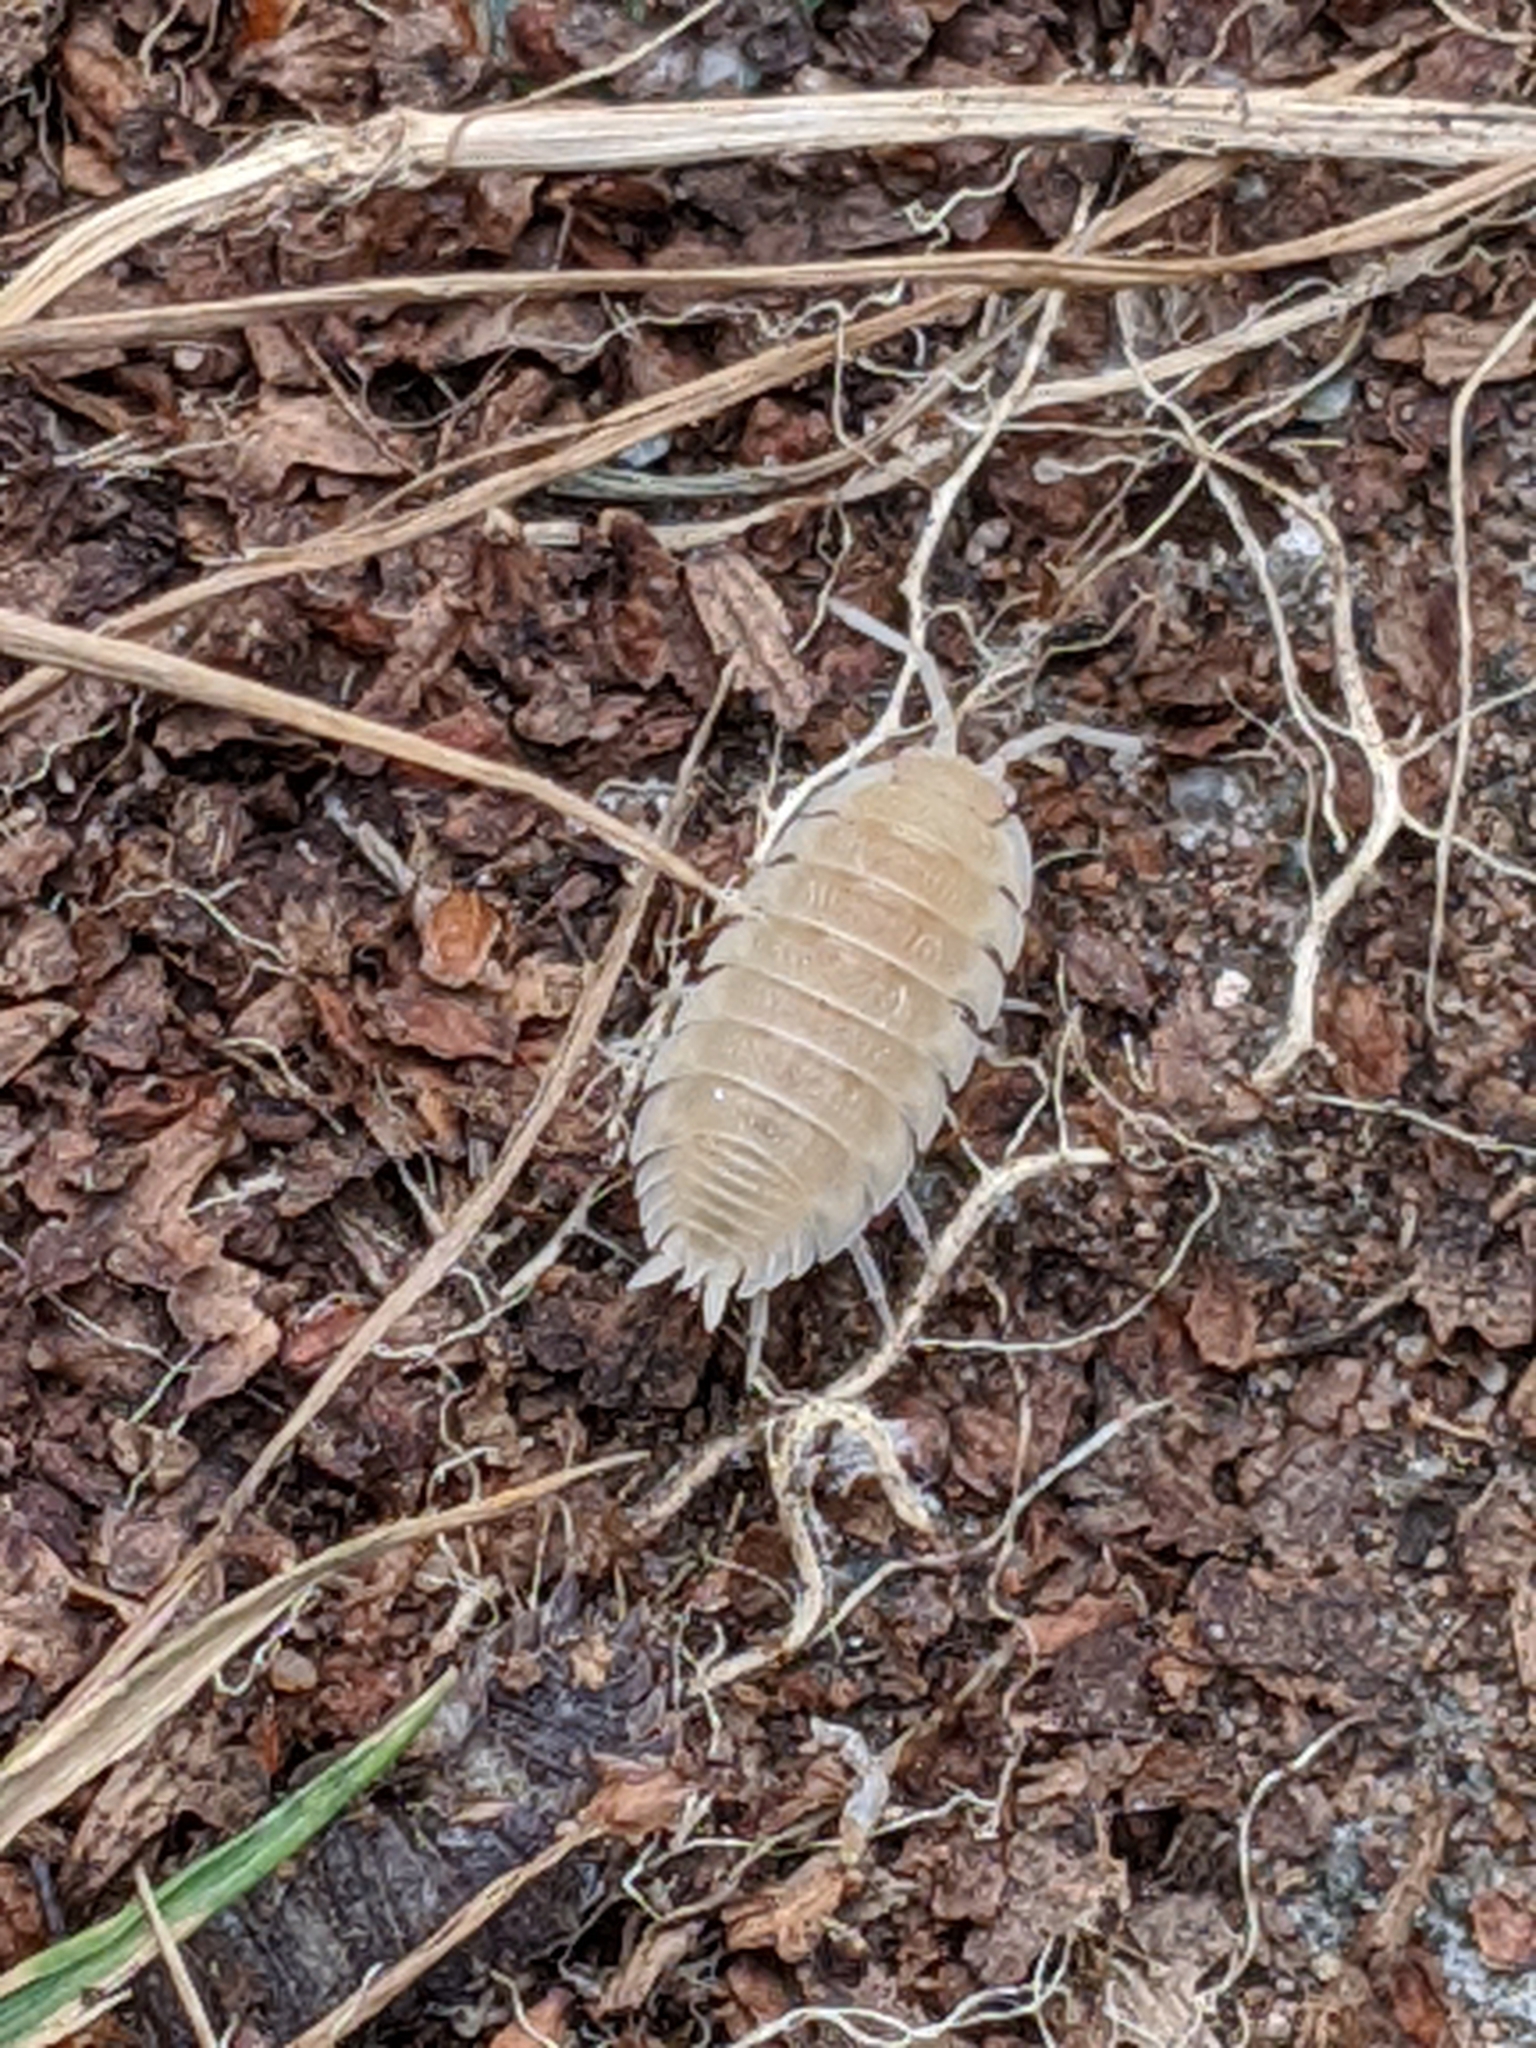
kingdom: Animalia
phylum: Arthropoda
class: Malacostraca
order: Isopoda
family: Porcellionidae
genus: Porcellio
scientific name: Porcellio scaber
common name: Common rough woodlouse
